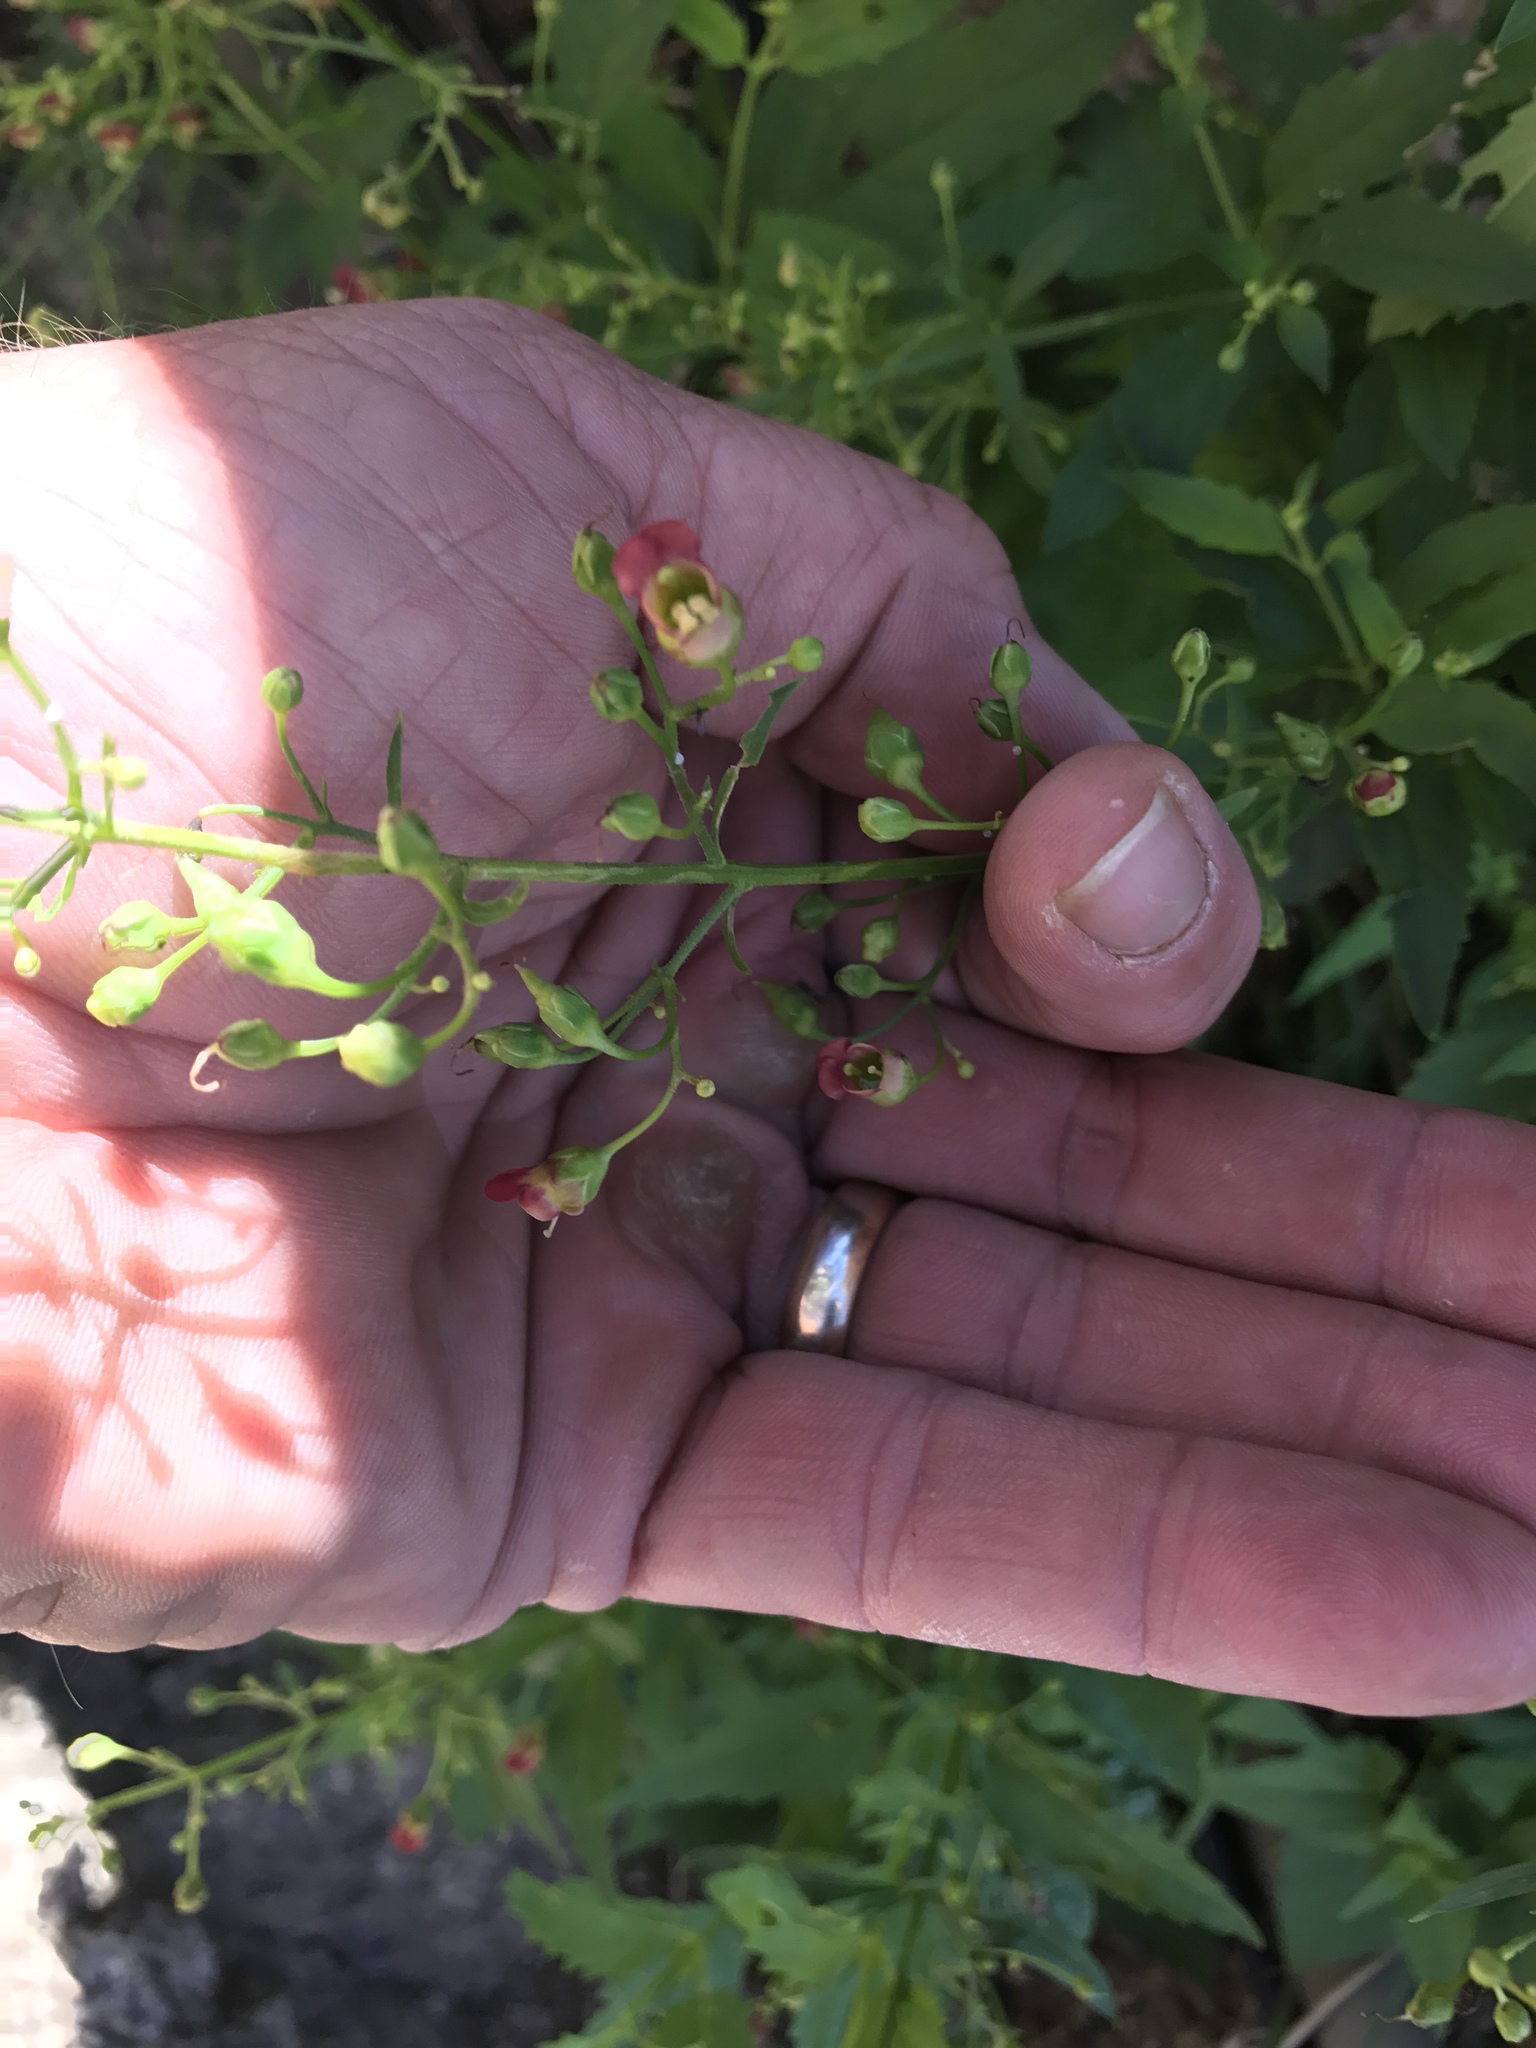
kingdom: Plantae
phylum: Tracheophyta
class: Magnoliopsida
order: Lamiales
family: Scrophulariaceae
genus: Scrophularia
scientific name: Scrophularia parviflora
